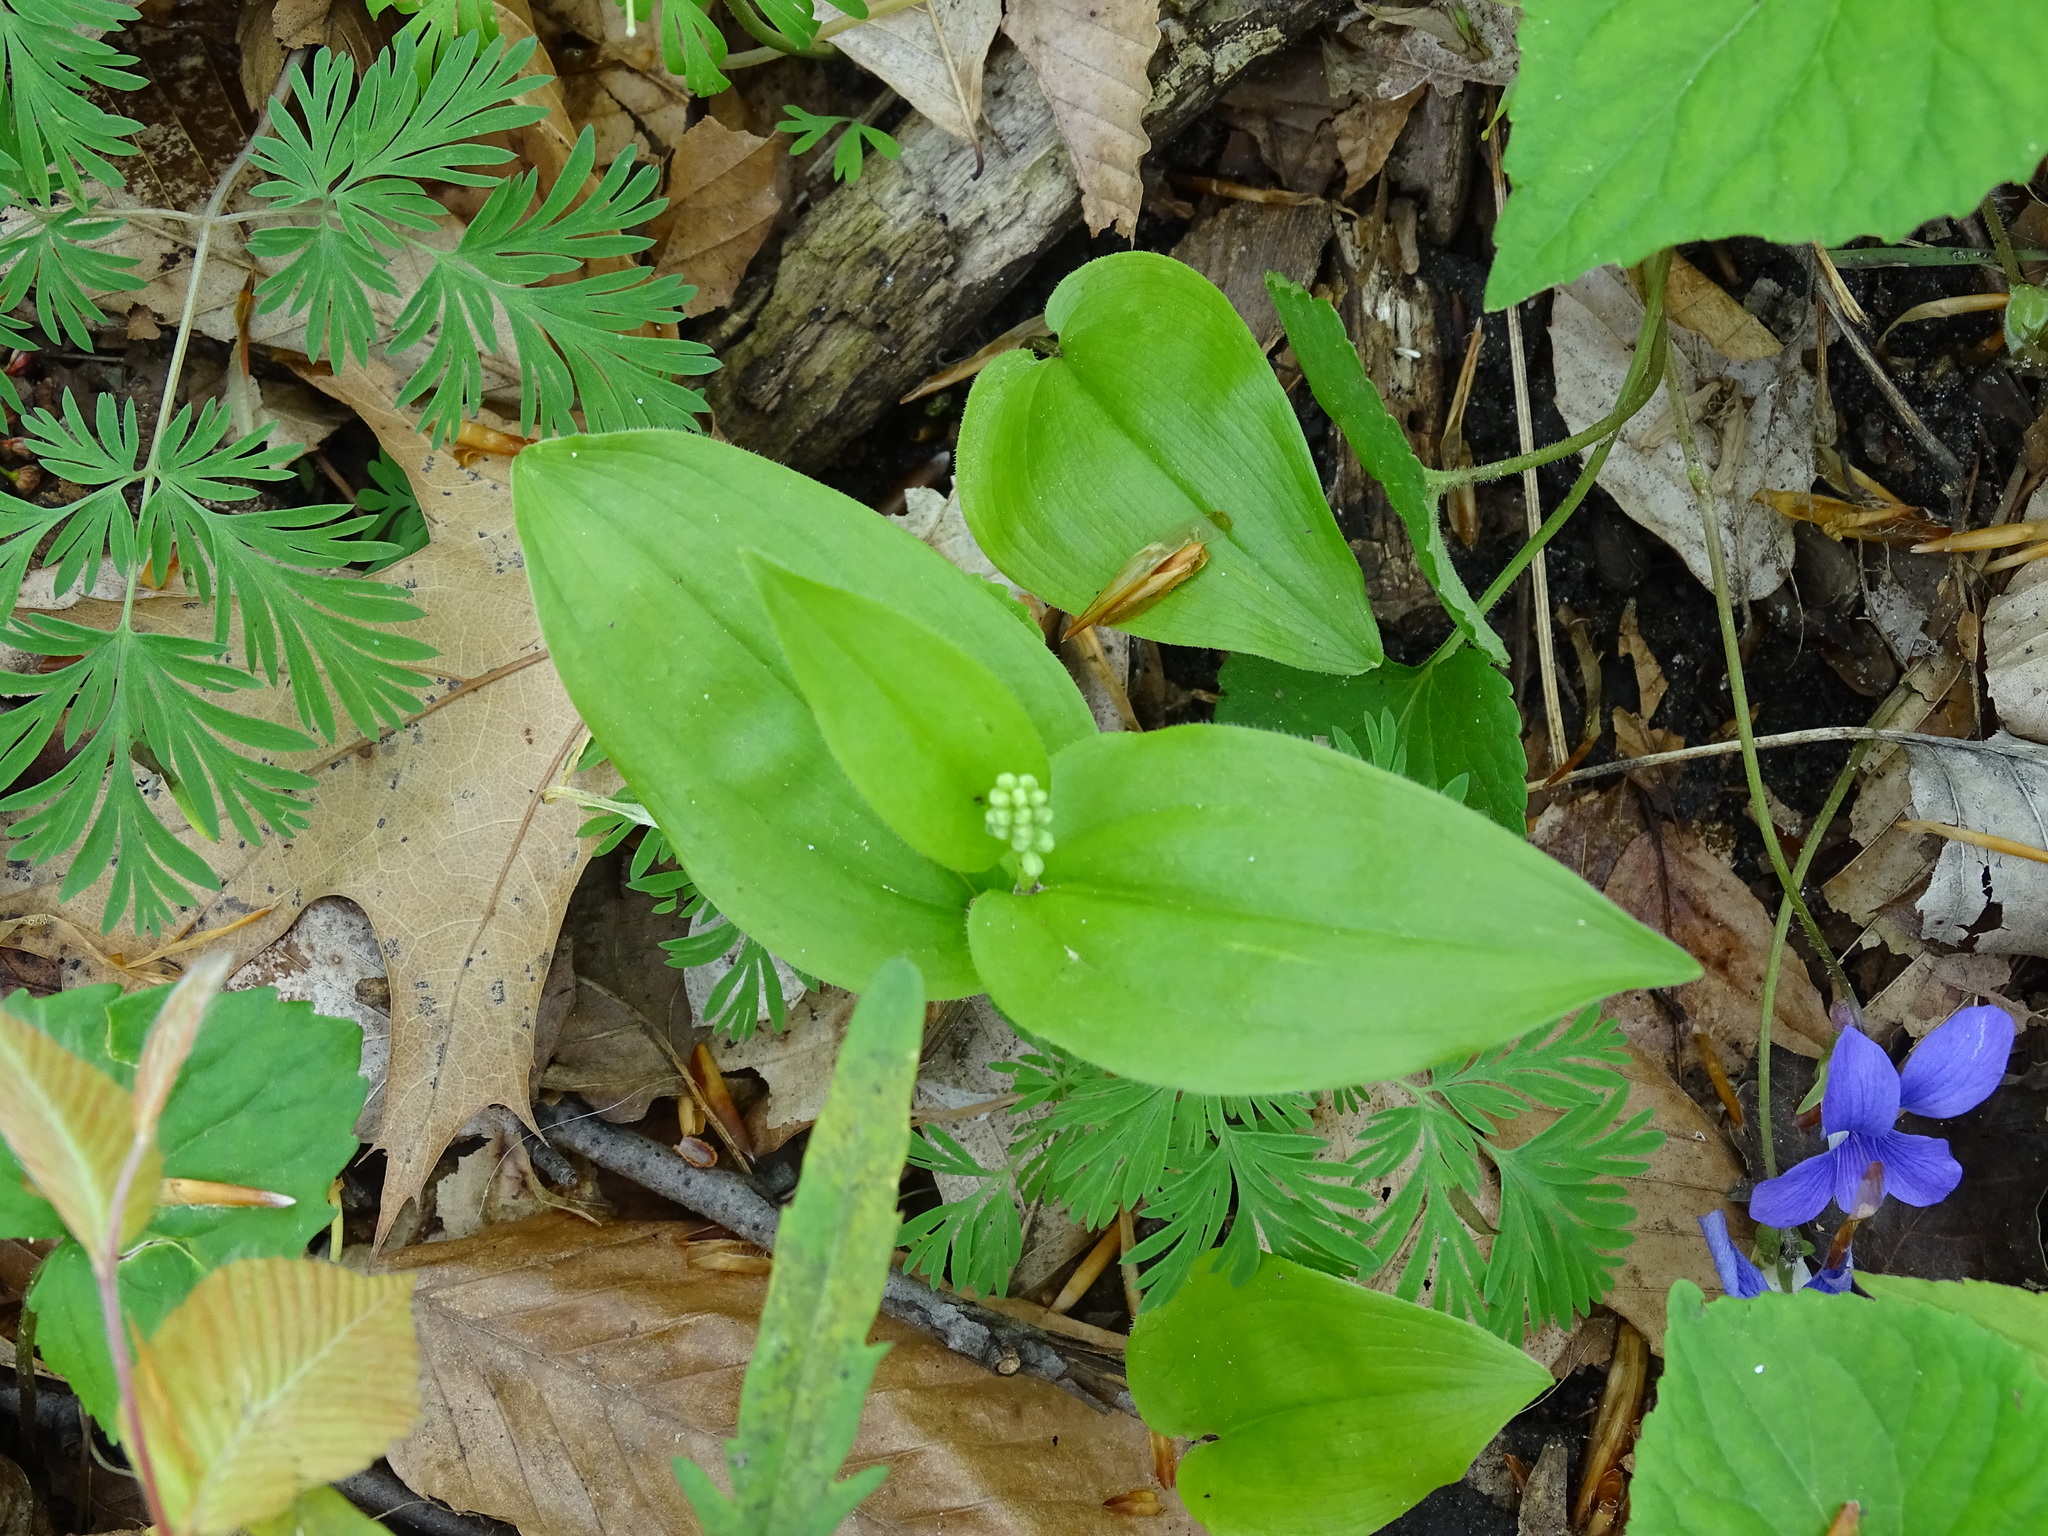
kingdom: Plantae
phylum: Tracheophyta
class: Liliopsida
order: Asparagales
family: Asparagaceae
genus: Maianthemum
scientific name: Maianthemum canadense
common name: False lily-of-the-valley
